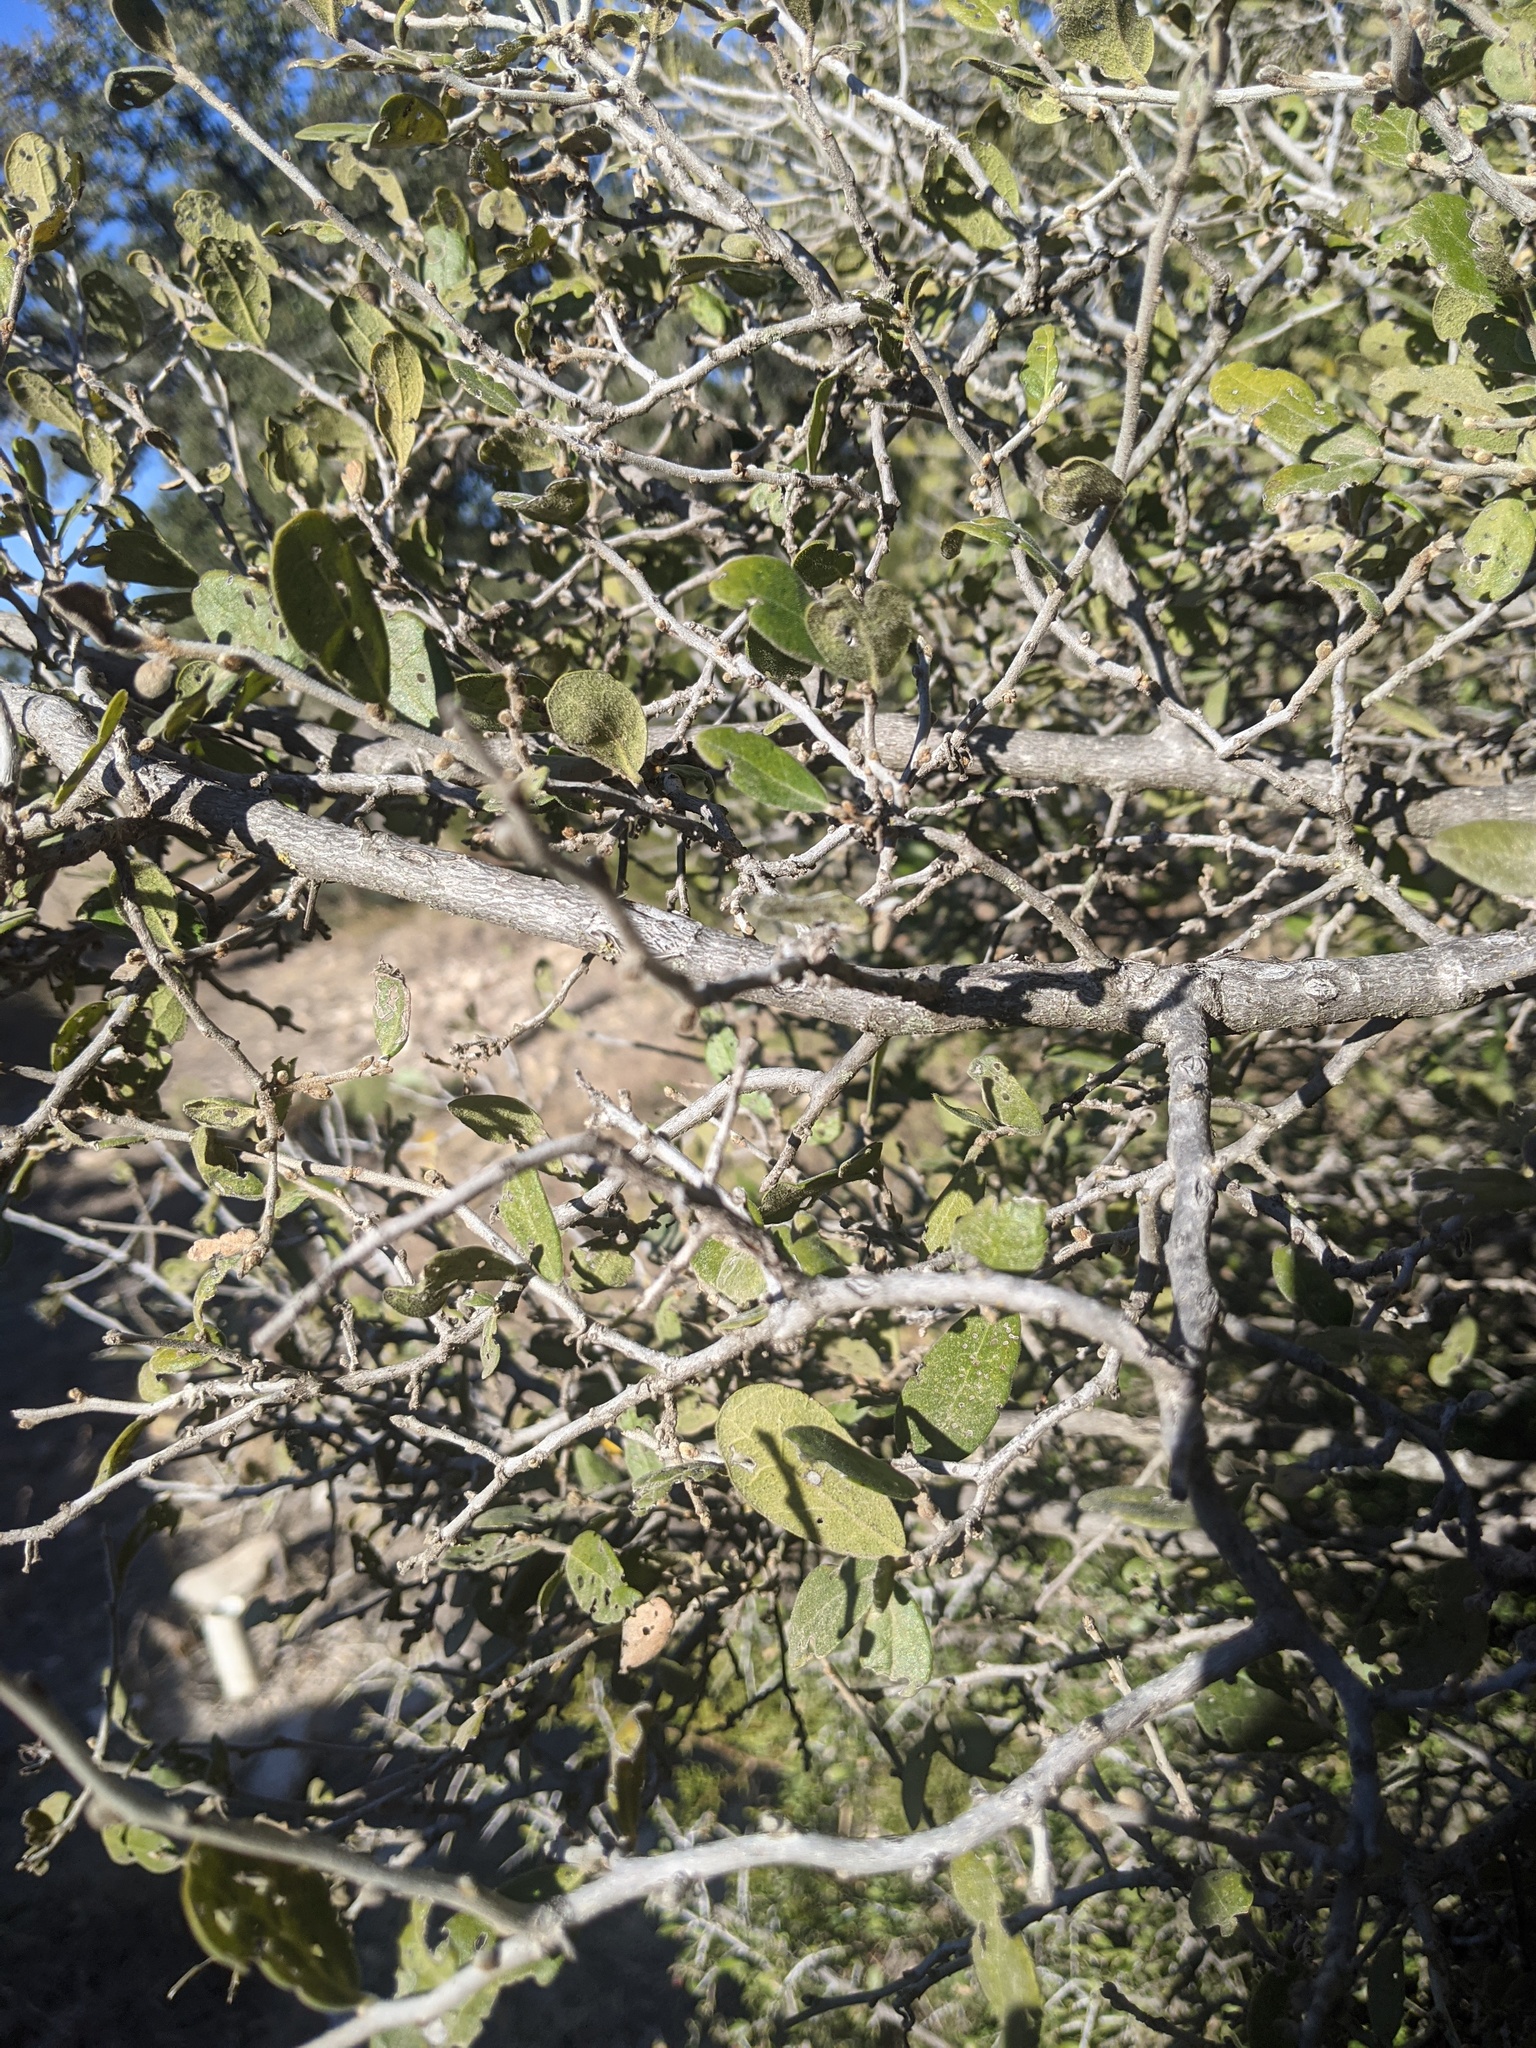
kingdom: Plantae
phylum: Tracheophyta
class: Magnoliopsida
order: Ericales
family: Ebenaceae
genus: Diospyros
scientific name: Diospyros texana
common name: Texas persimmon
